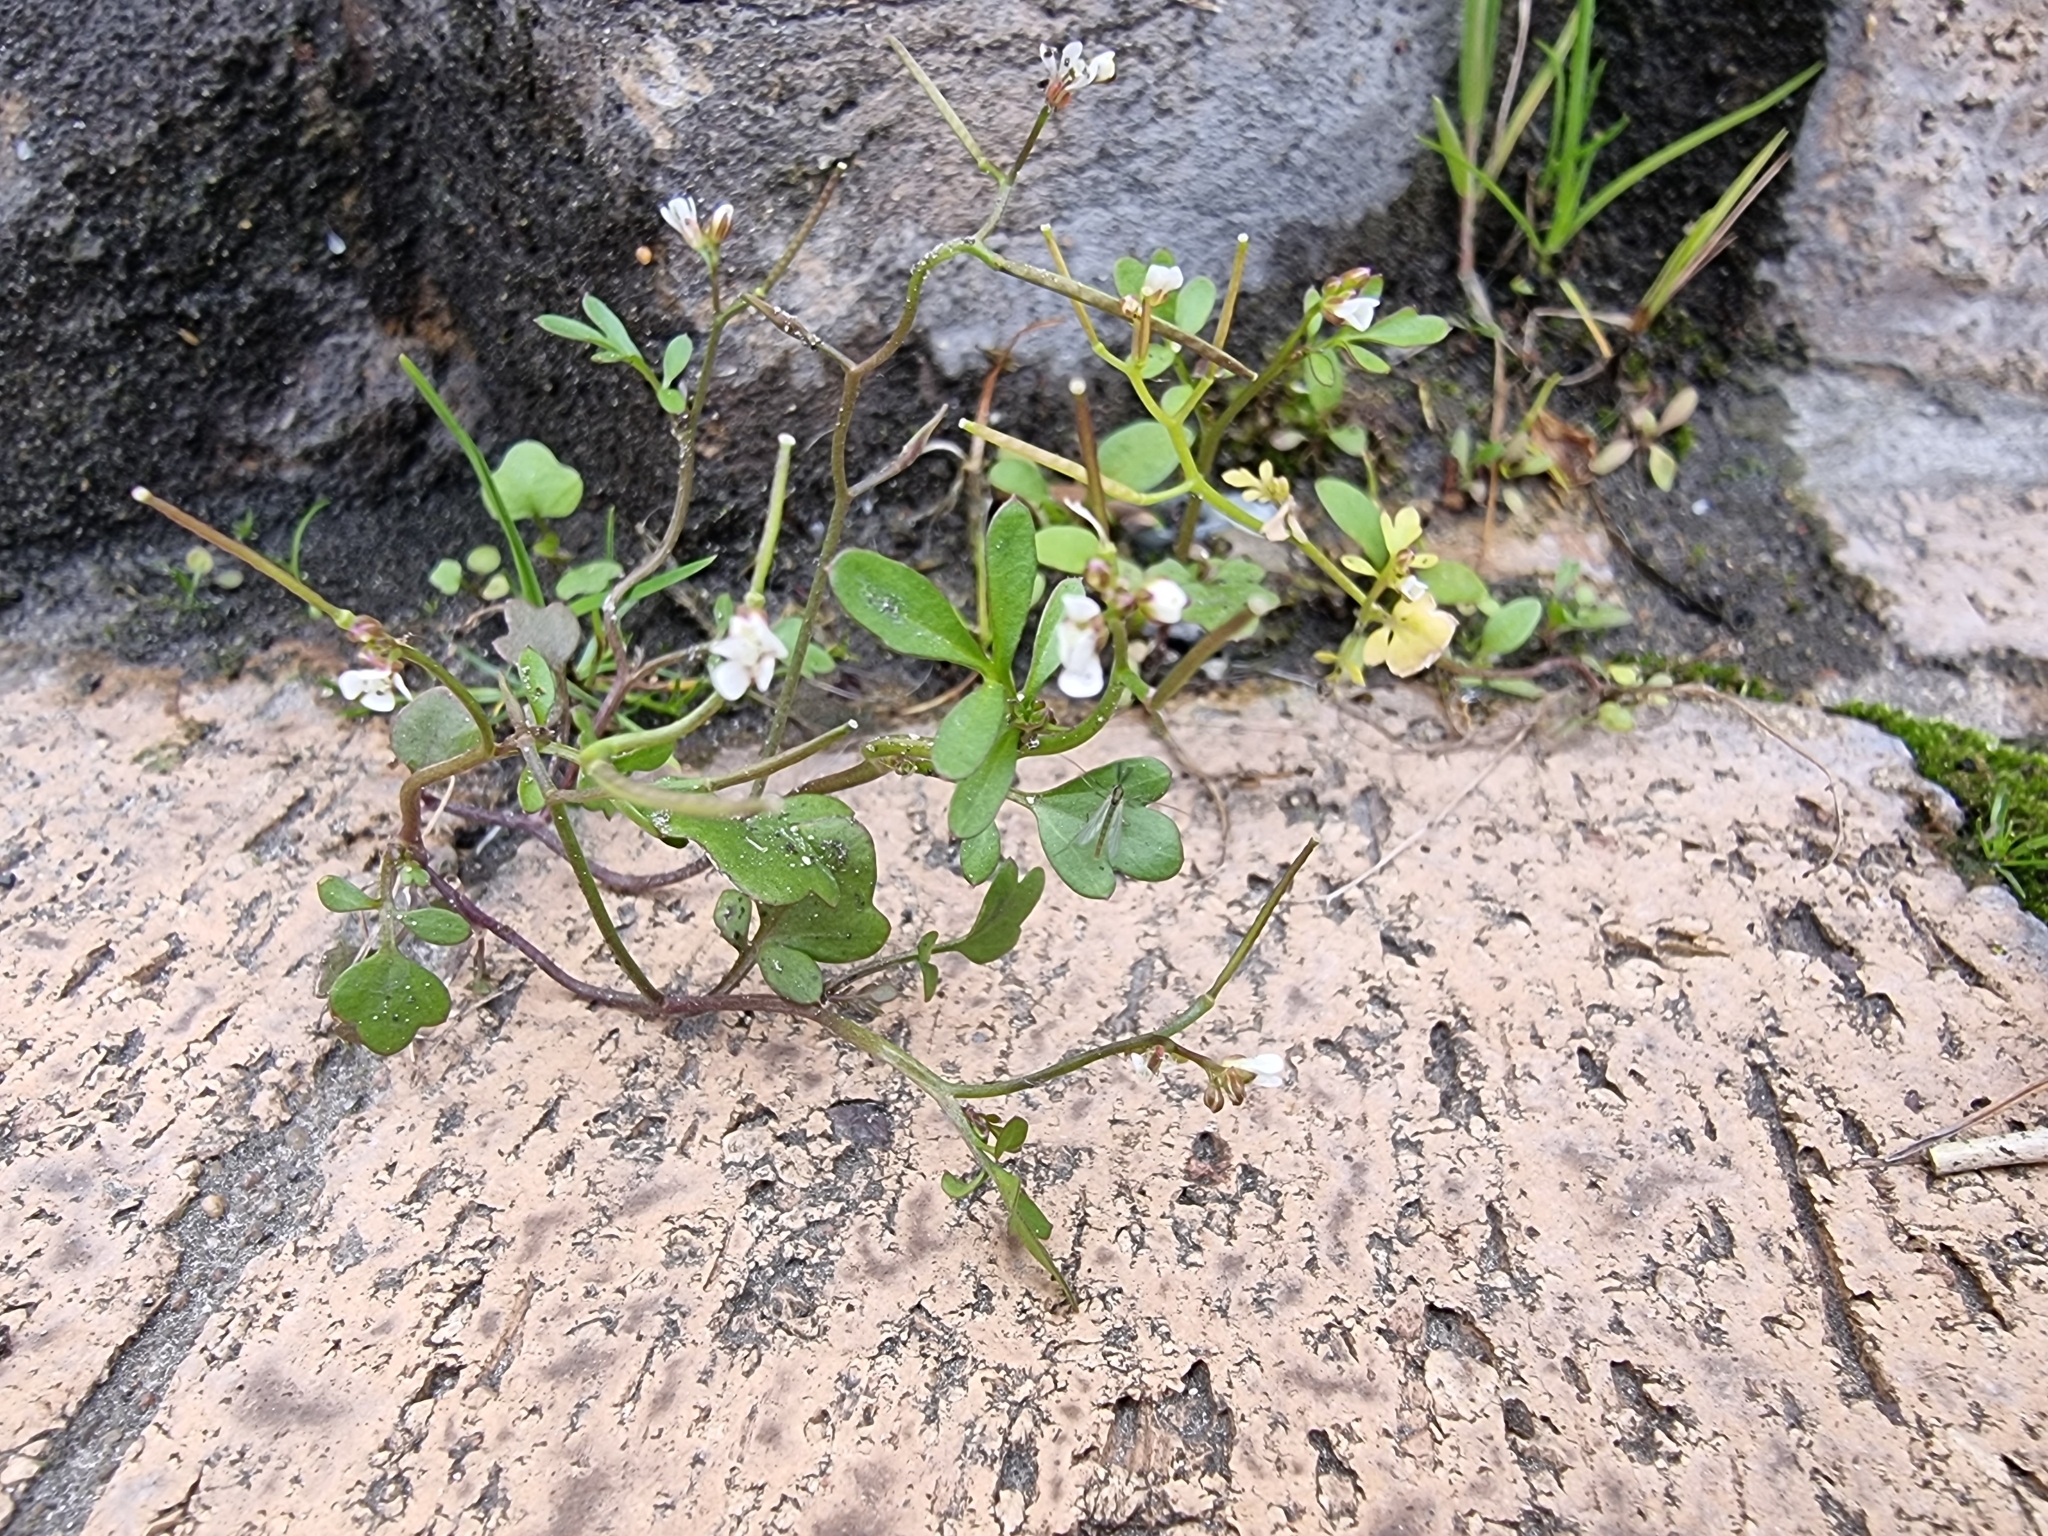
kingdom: Plantae
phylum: Tracheophyta
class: Magnoliopsida
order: Brassicales
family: Brassicaceae
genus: Cardamine
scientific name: Cardamine occulta
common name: Asian wavy bittercress
